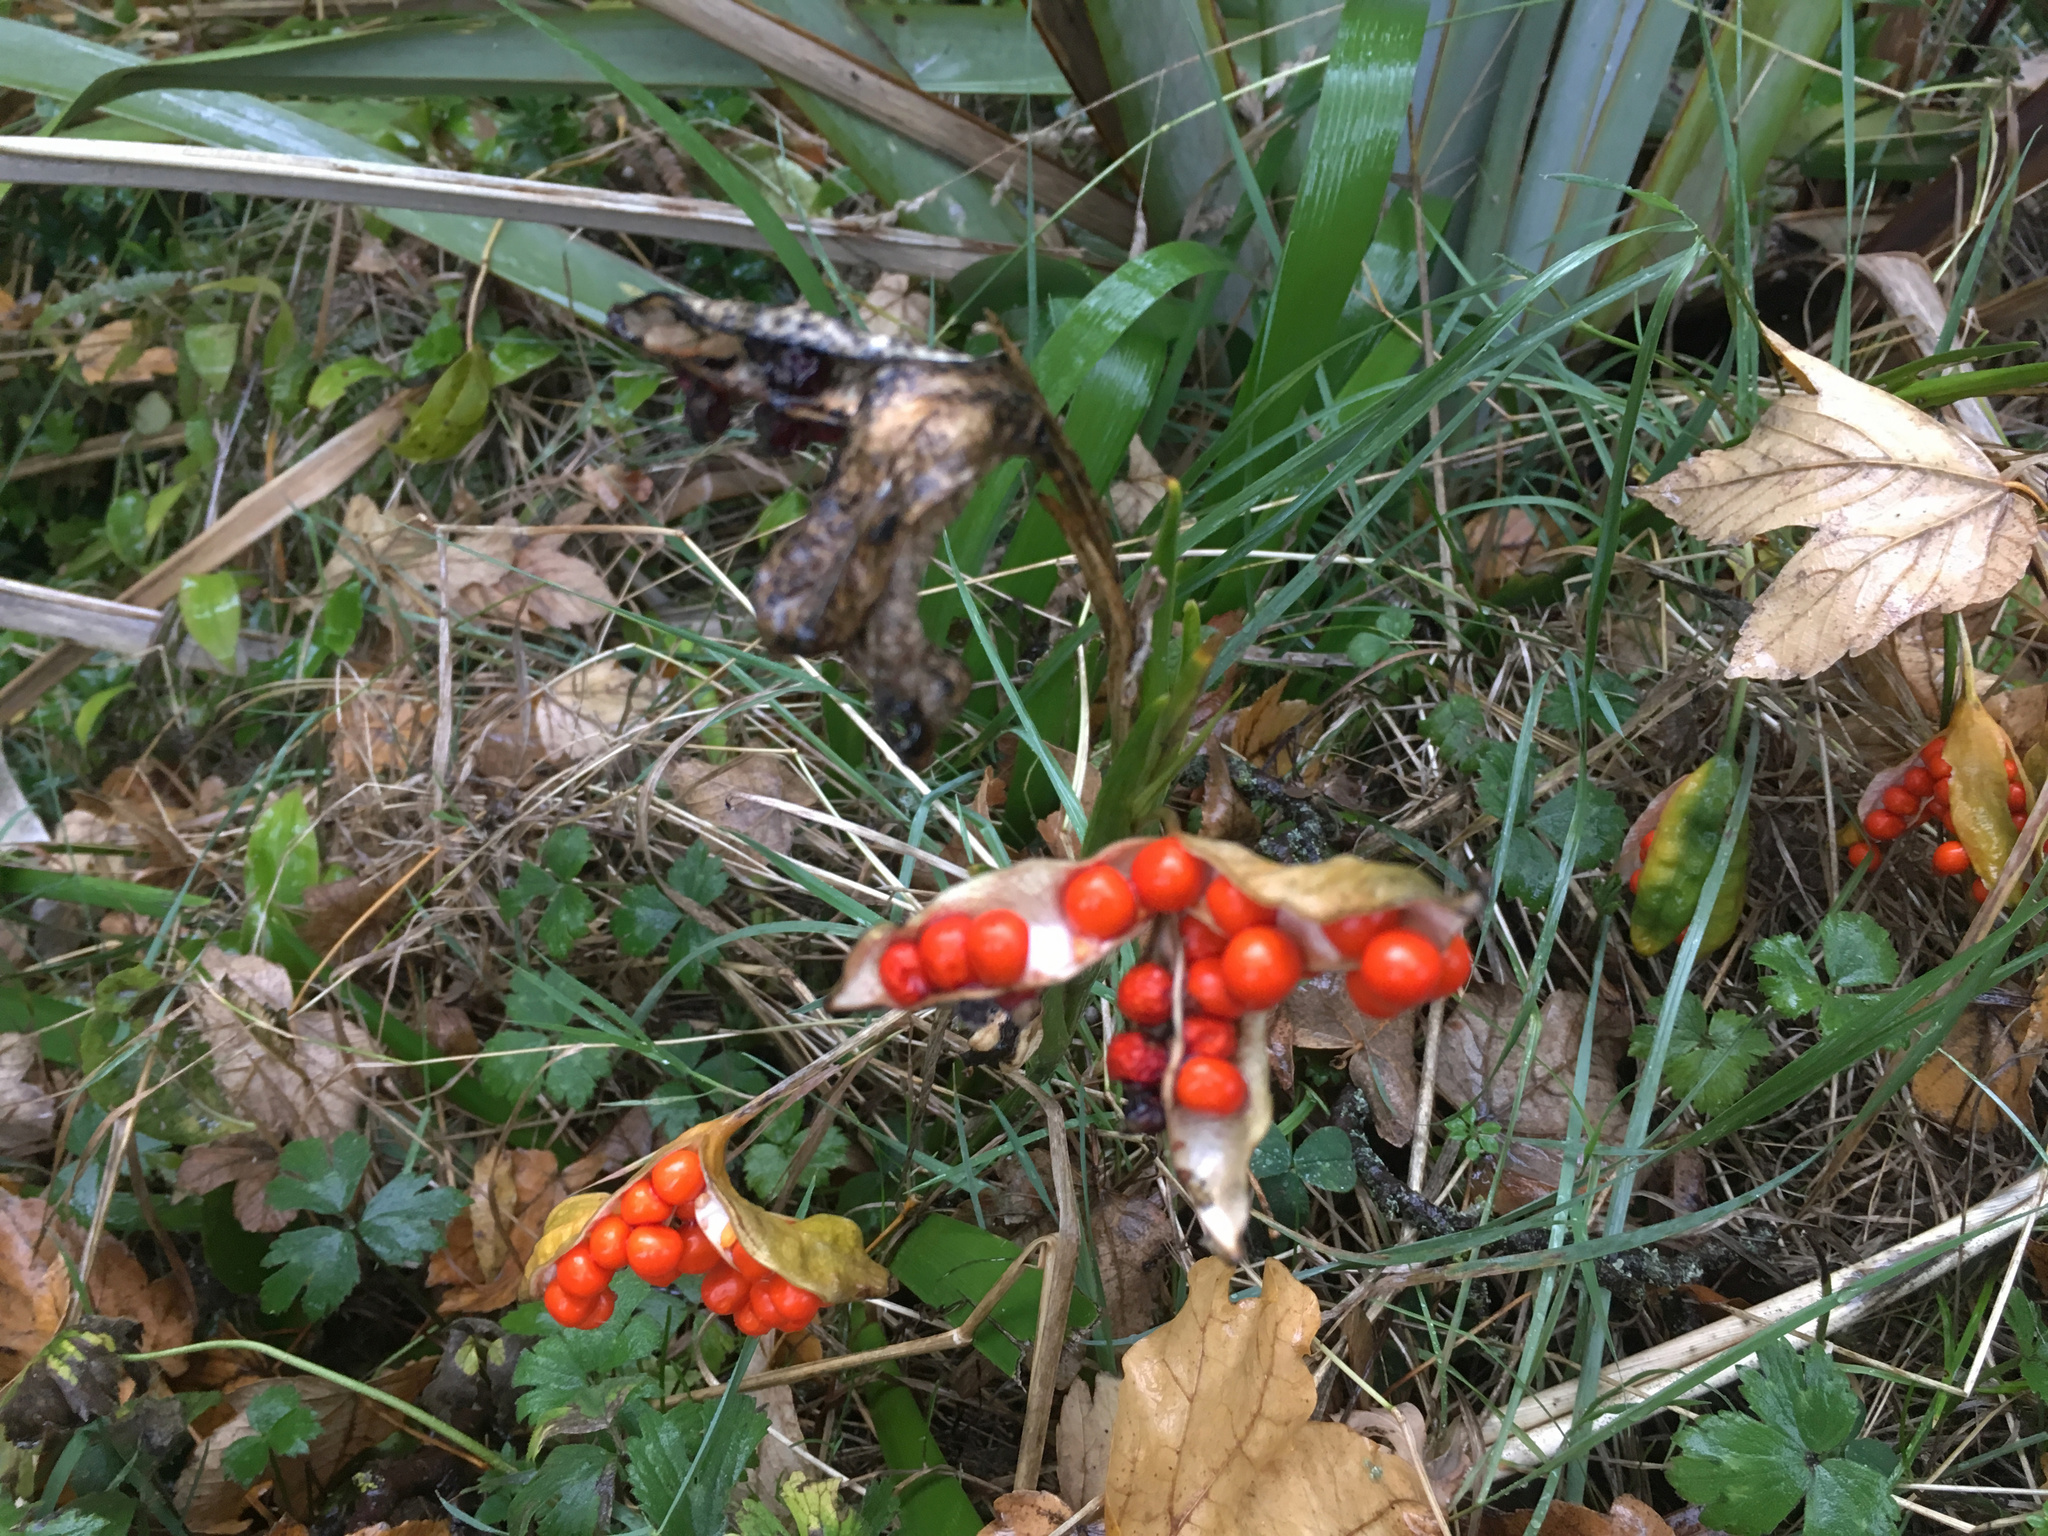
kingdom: Plantae
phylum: Tracheophyta
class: Liliopsida
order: Asparagales
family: Iridaceae
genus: Iris
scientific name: Iris foetidissima
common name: Stinking iris
